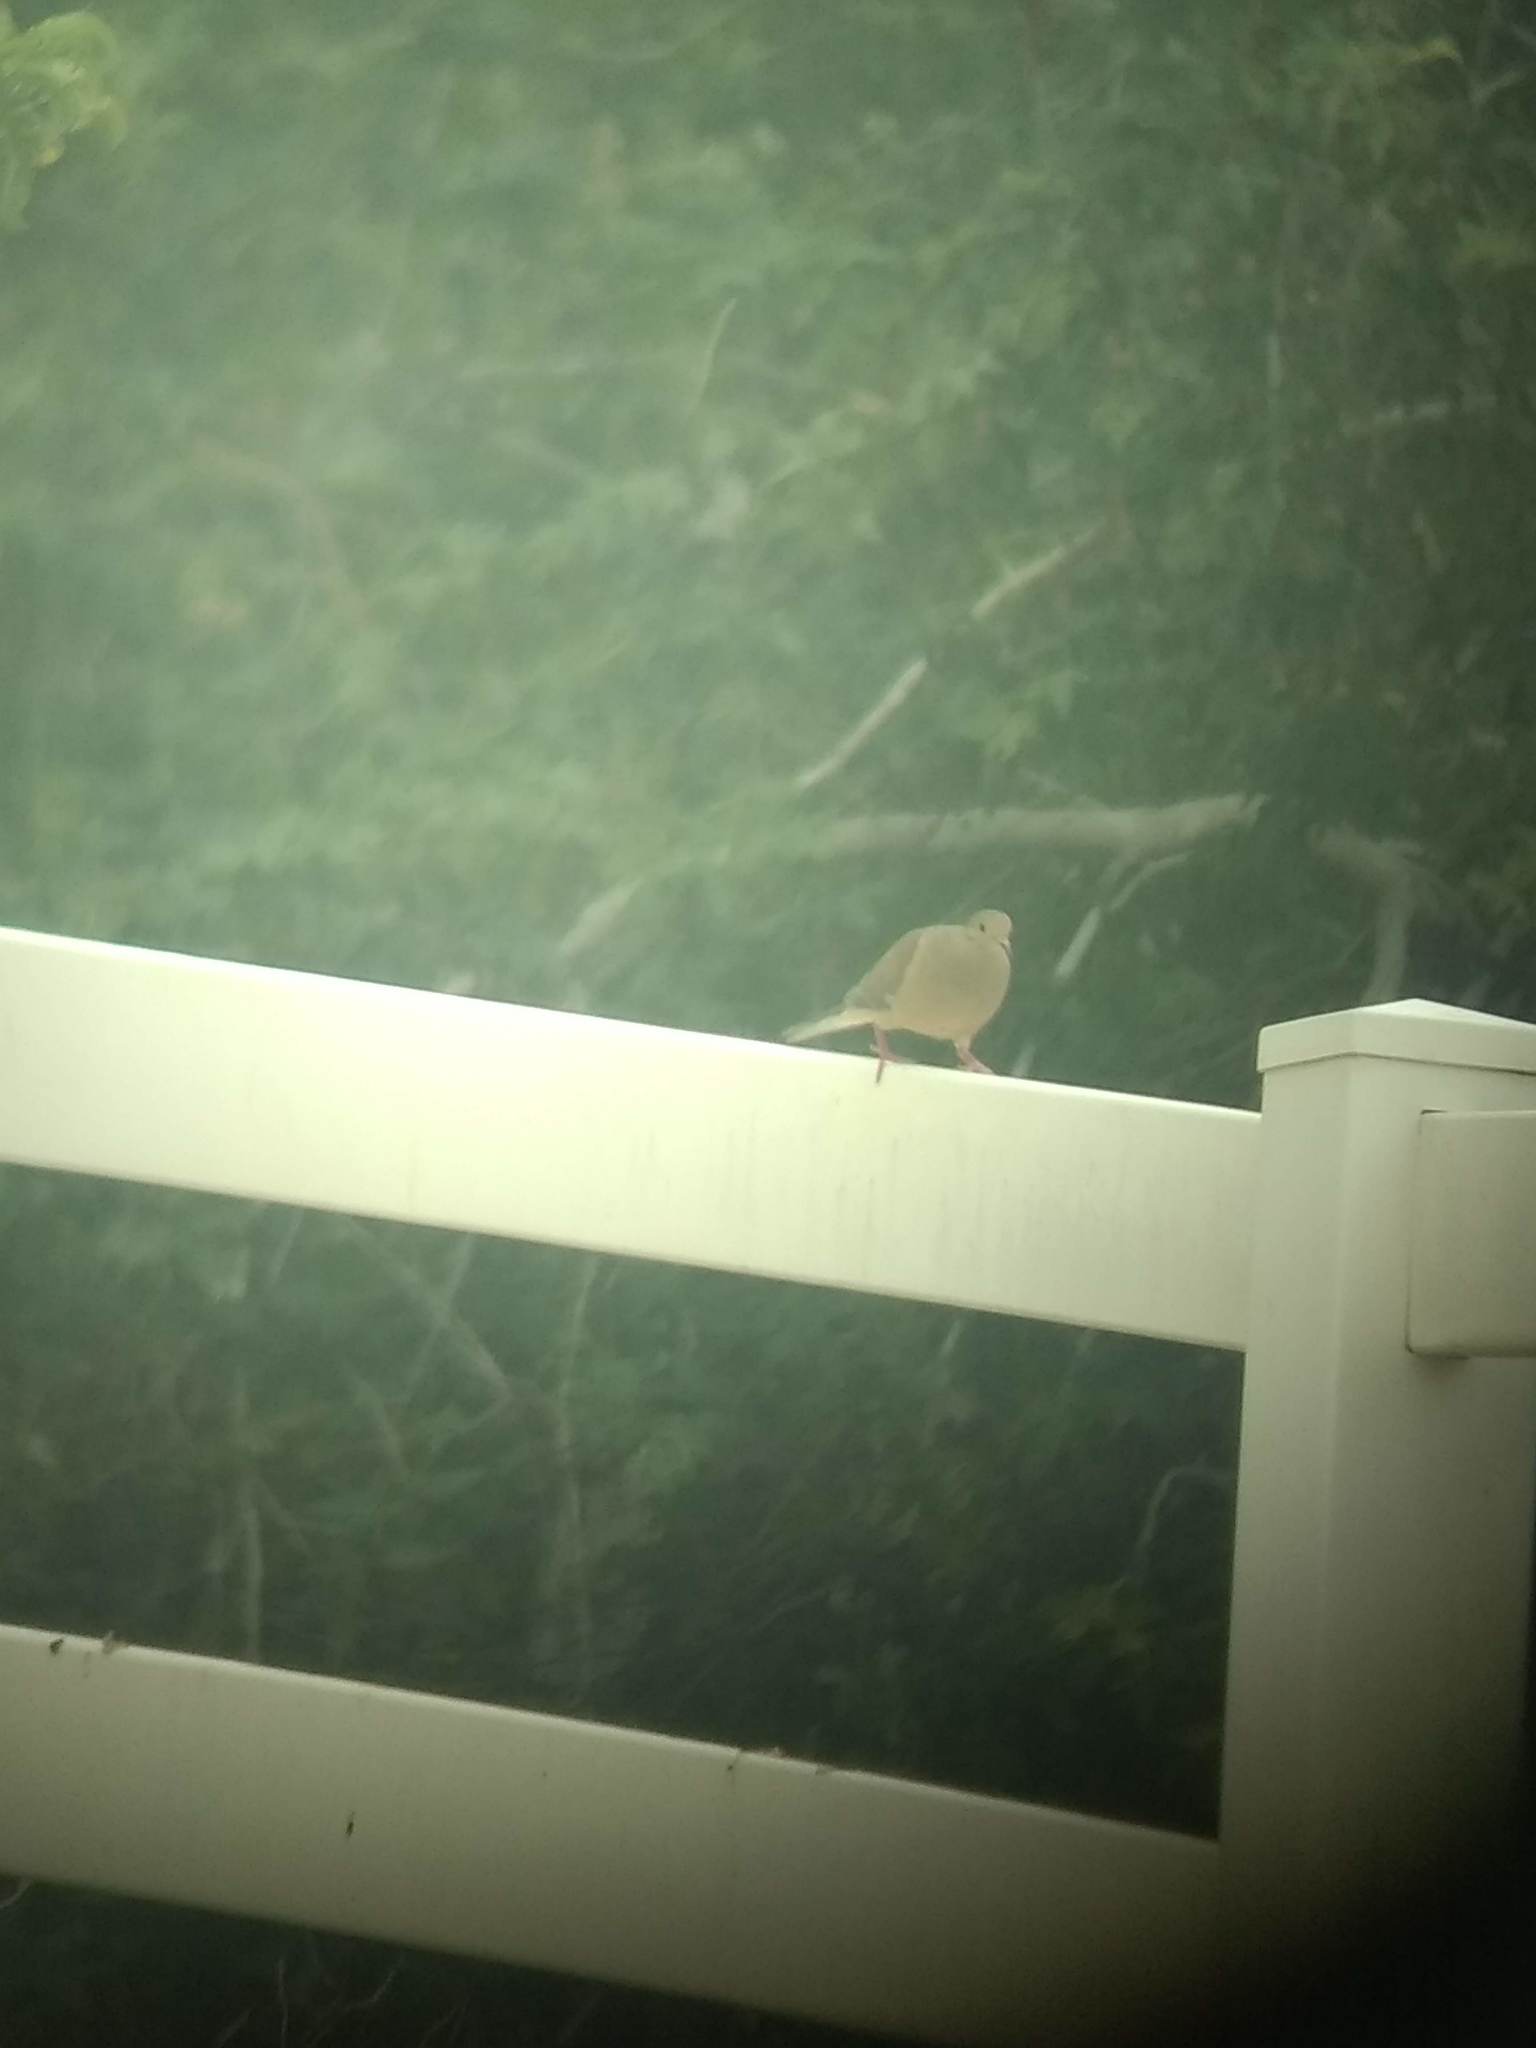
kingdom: Animalia
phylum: Chordata
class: Aves
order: Columbiformes
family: Columbidae
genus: Zenaida
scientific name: Zenaida macroura
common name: Mourning dove
